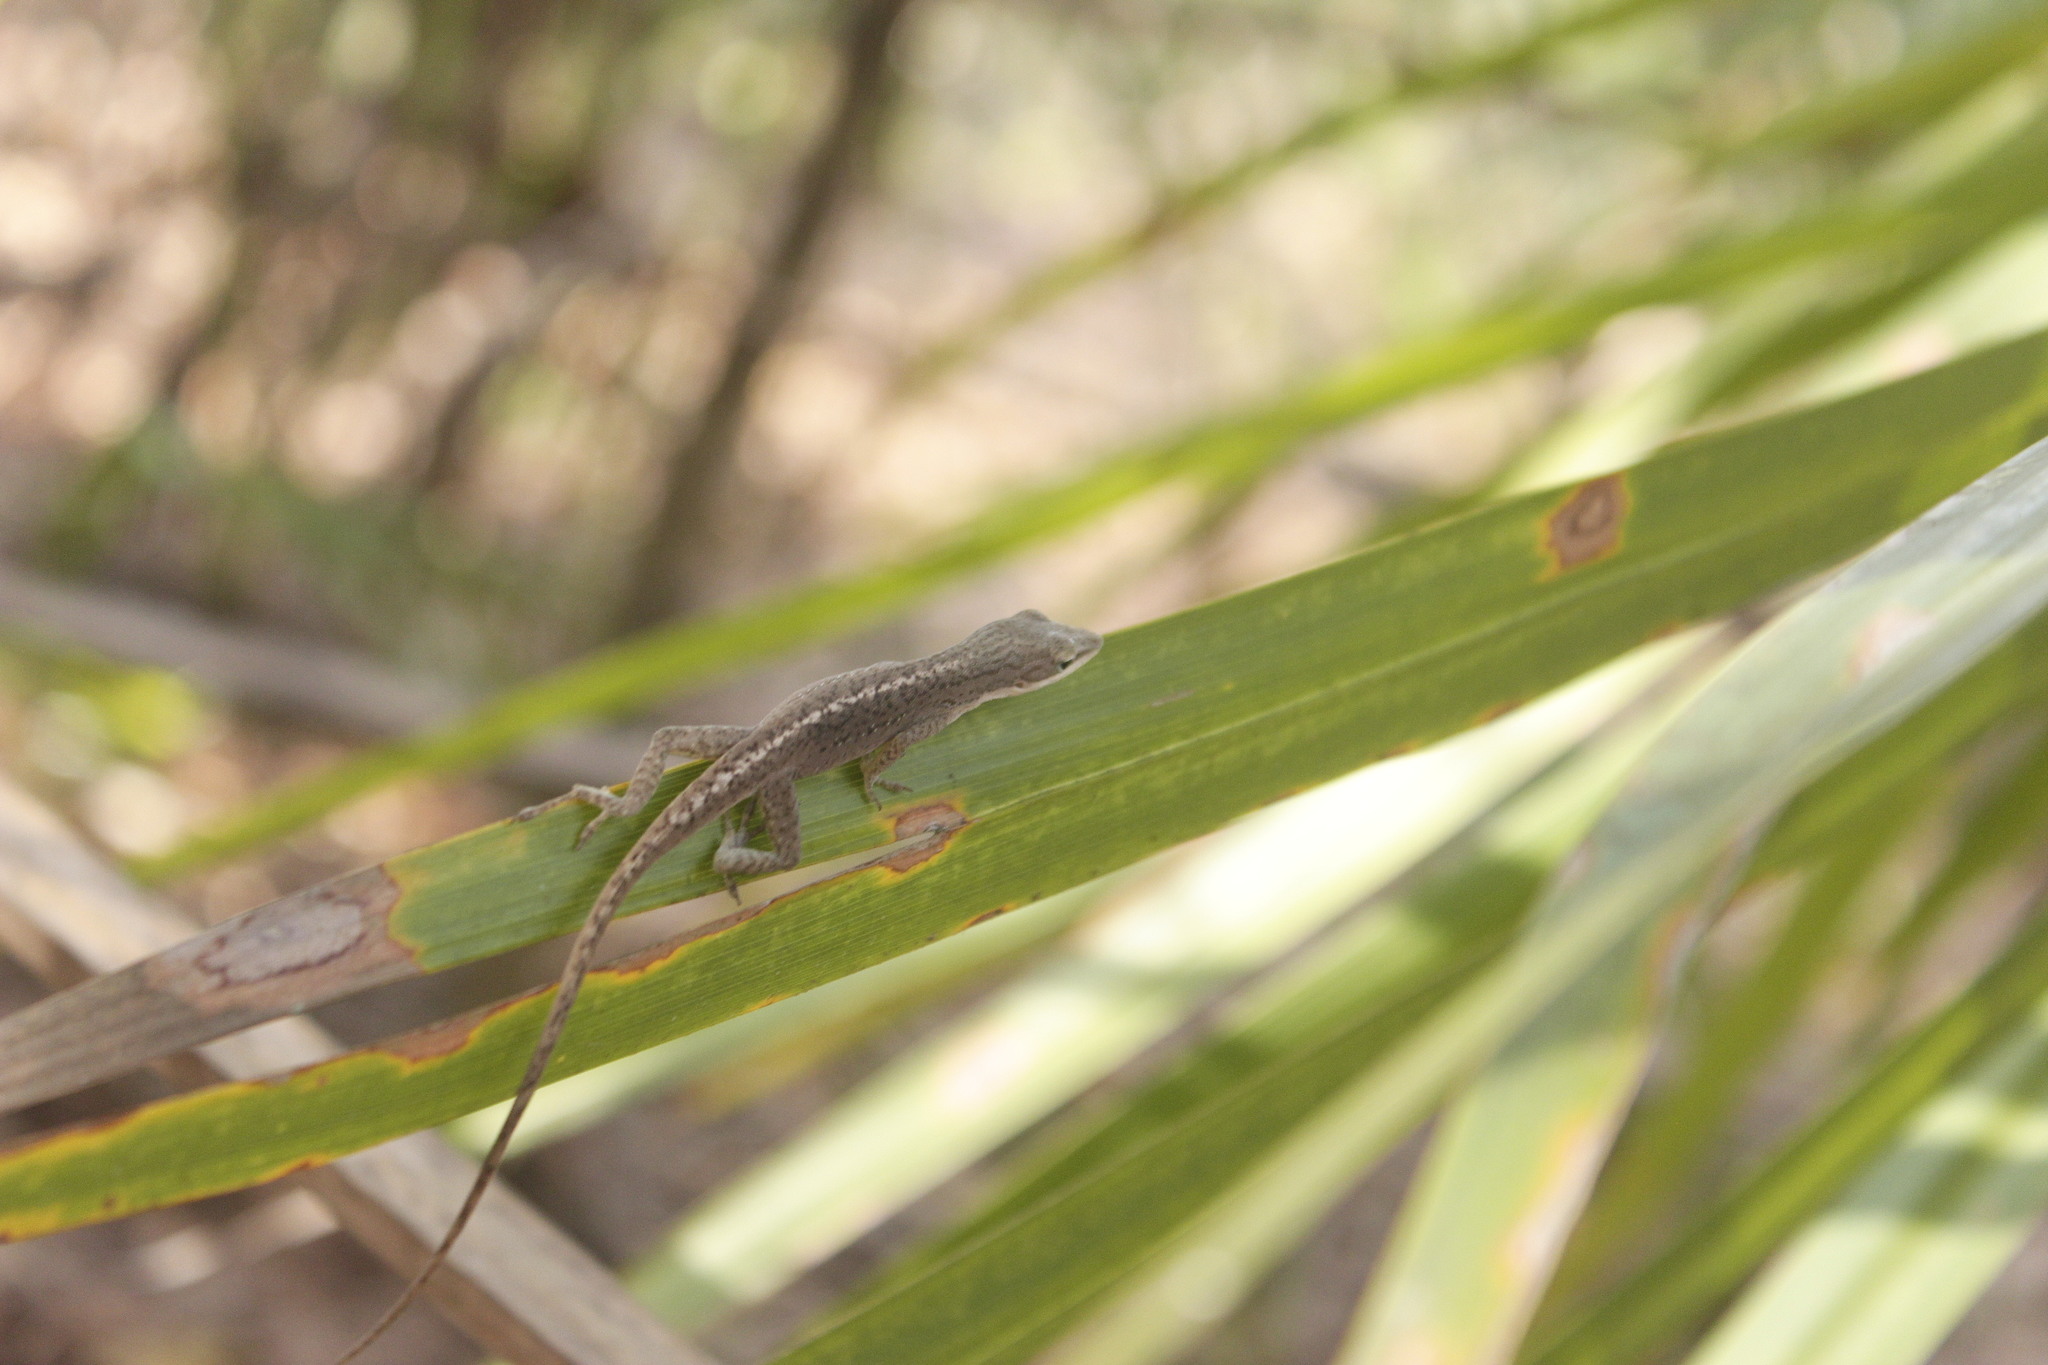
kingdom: Animalia
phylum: Chordata
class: Squamata
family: Dactyloidae
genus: Anolis
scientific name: Anolis carolinensis
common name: Green anole
